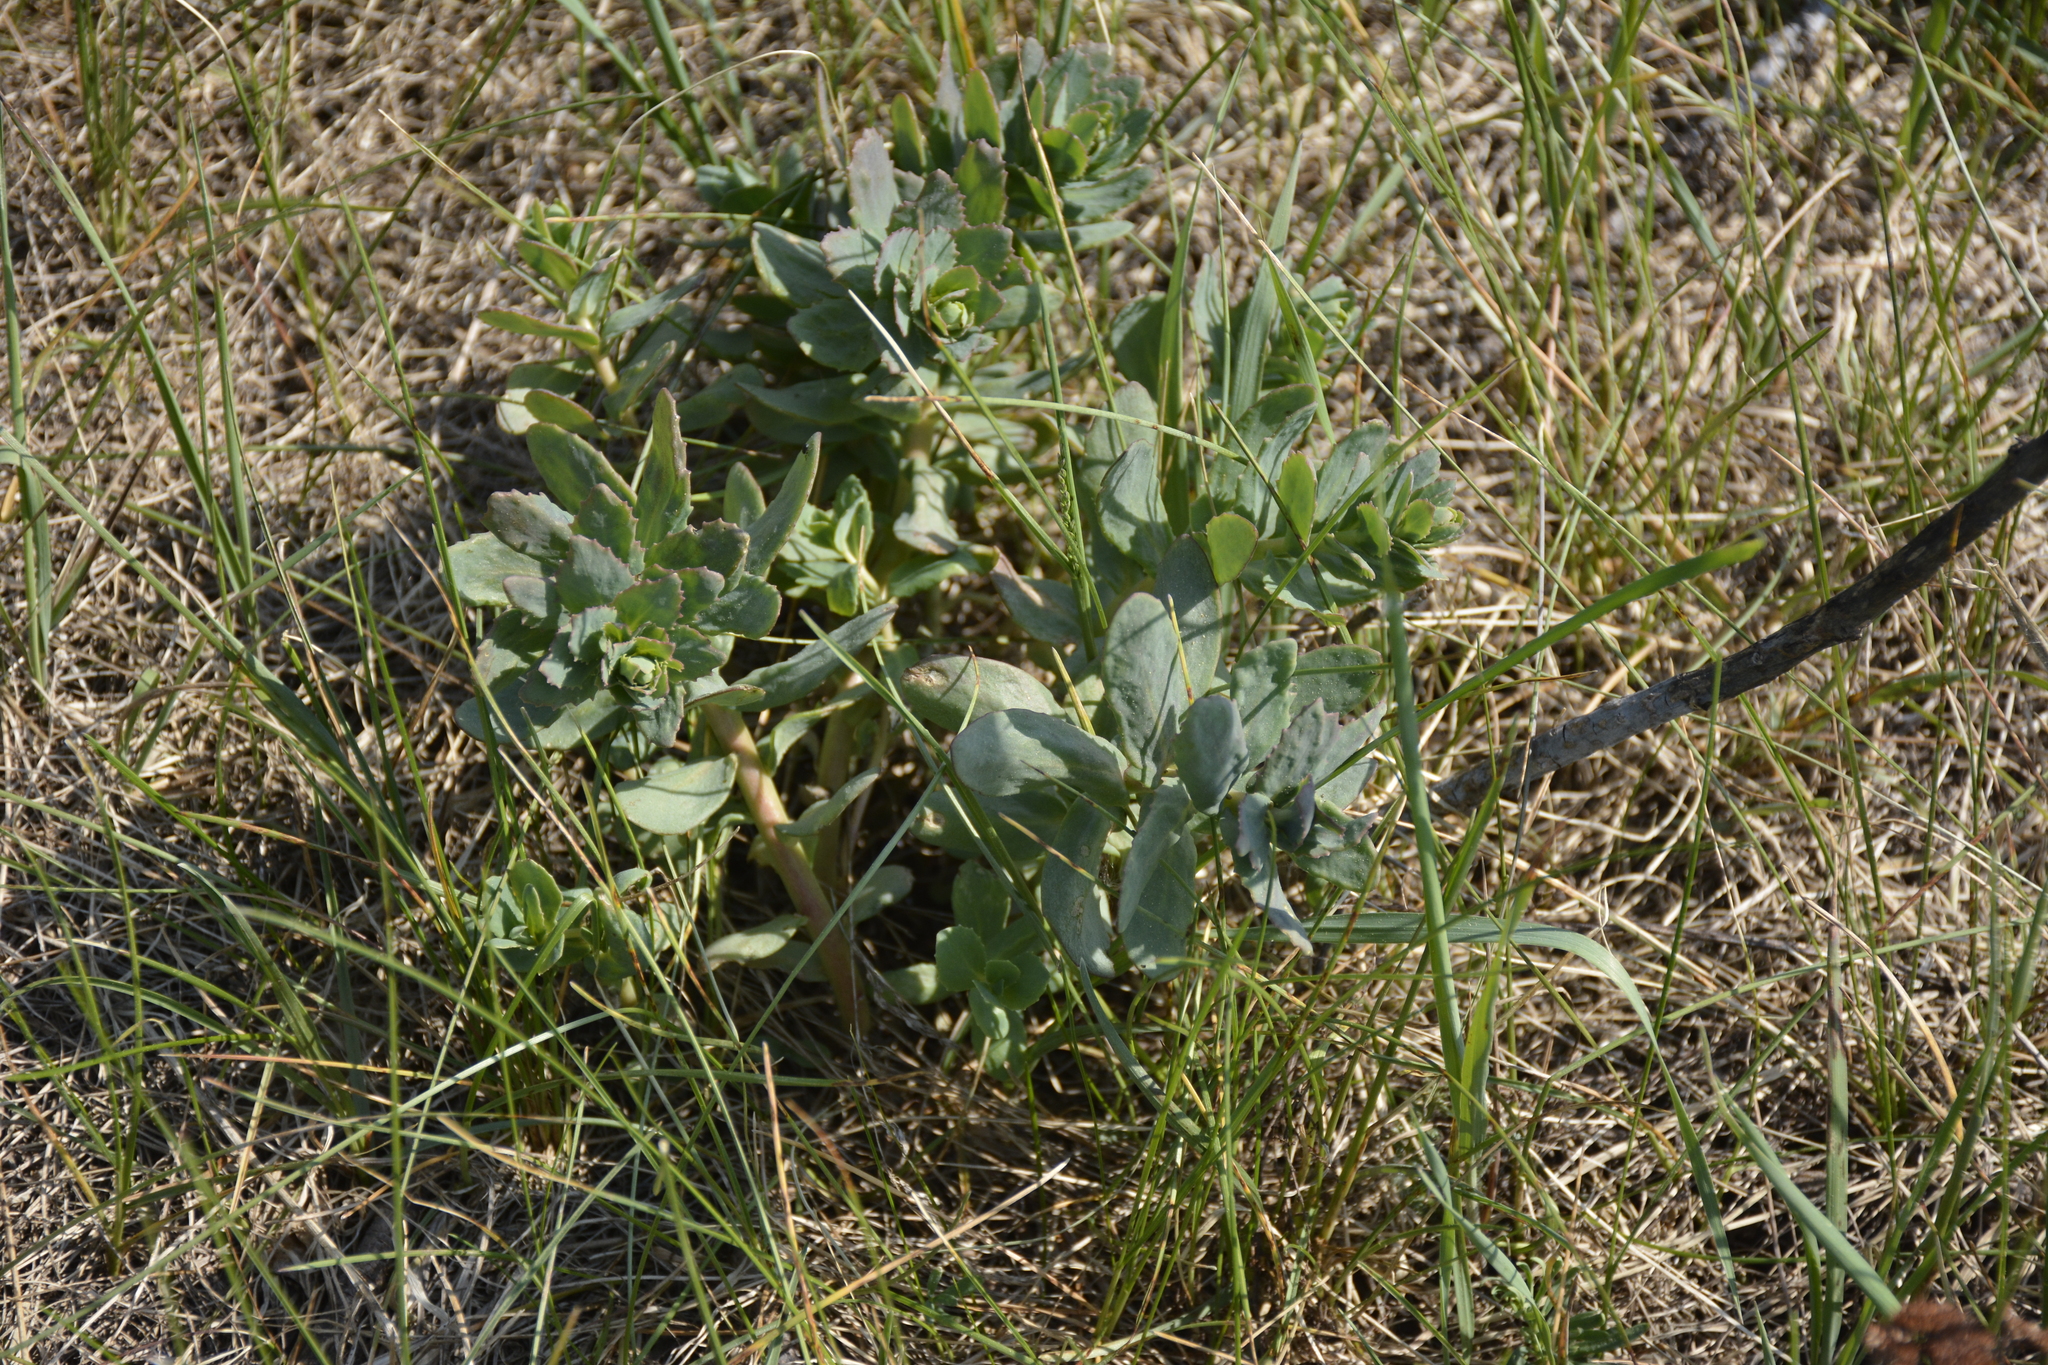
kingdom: Plantae
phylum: Tracheophyta
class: Magnoliopsida
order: Saxifragales
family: Crassulaceae
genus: Hylotelephium
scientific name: Hylotelephium maximum
